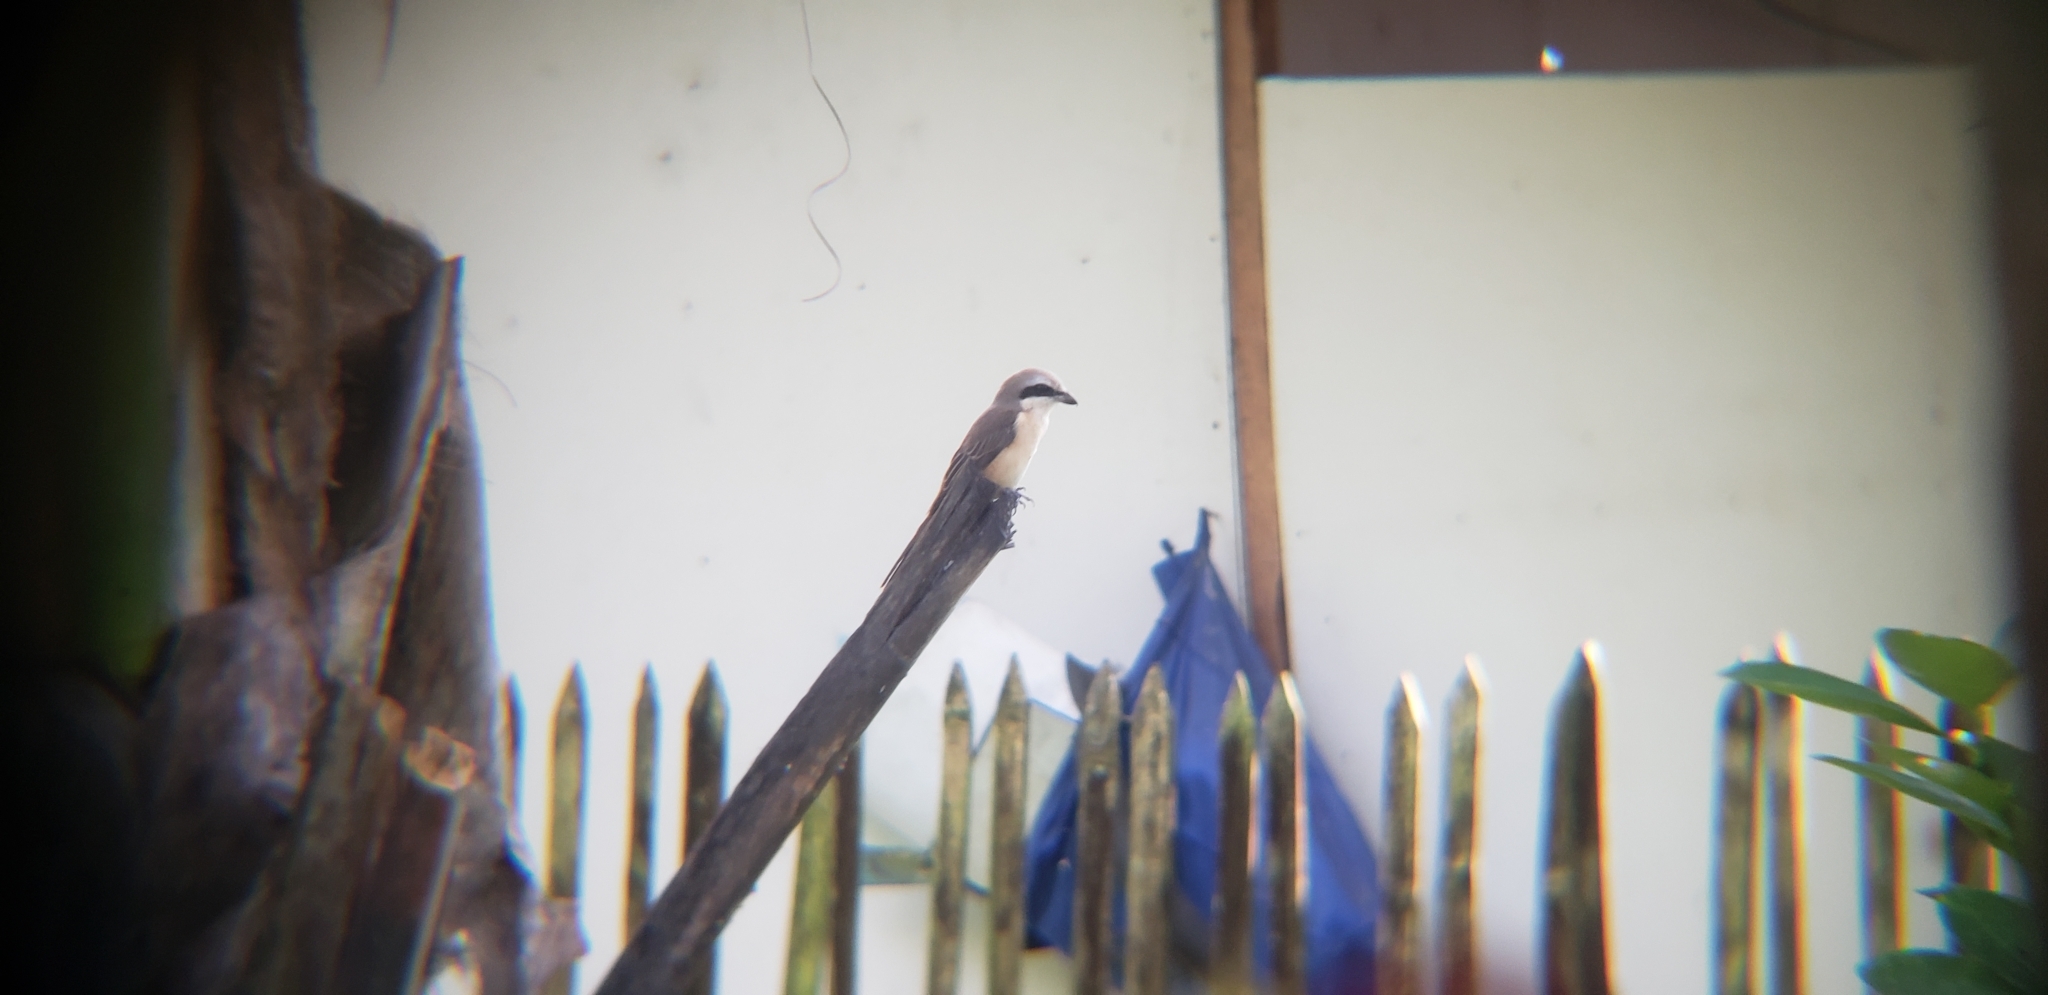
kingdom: Animalia
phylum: Chordata
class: Aves
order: Passeriformes
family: Laniidae
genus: Lanius
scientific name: Lanius cristatus
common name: Brown shrike
